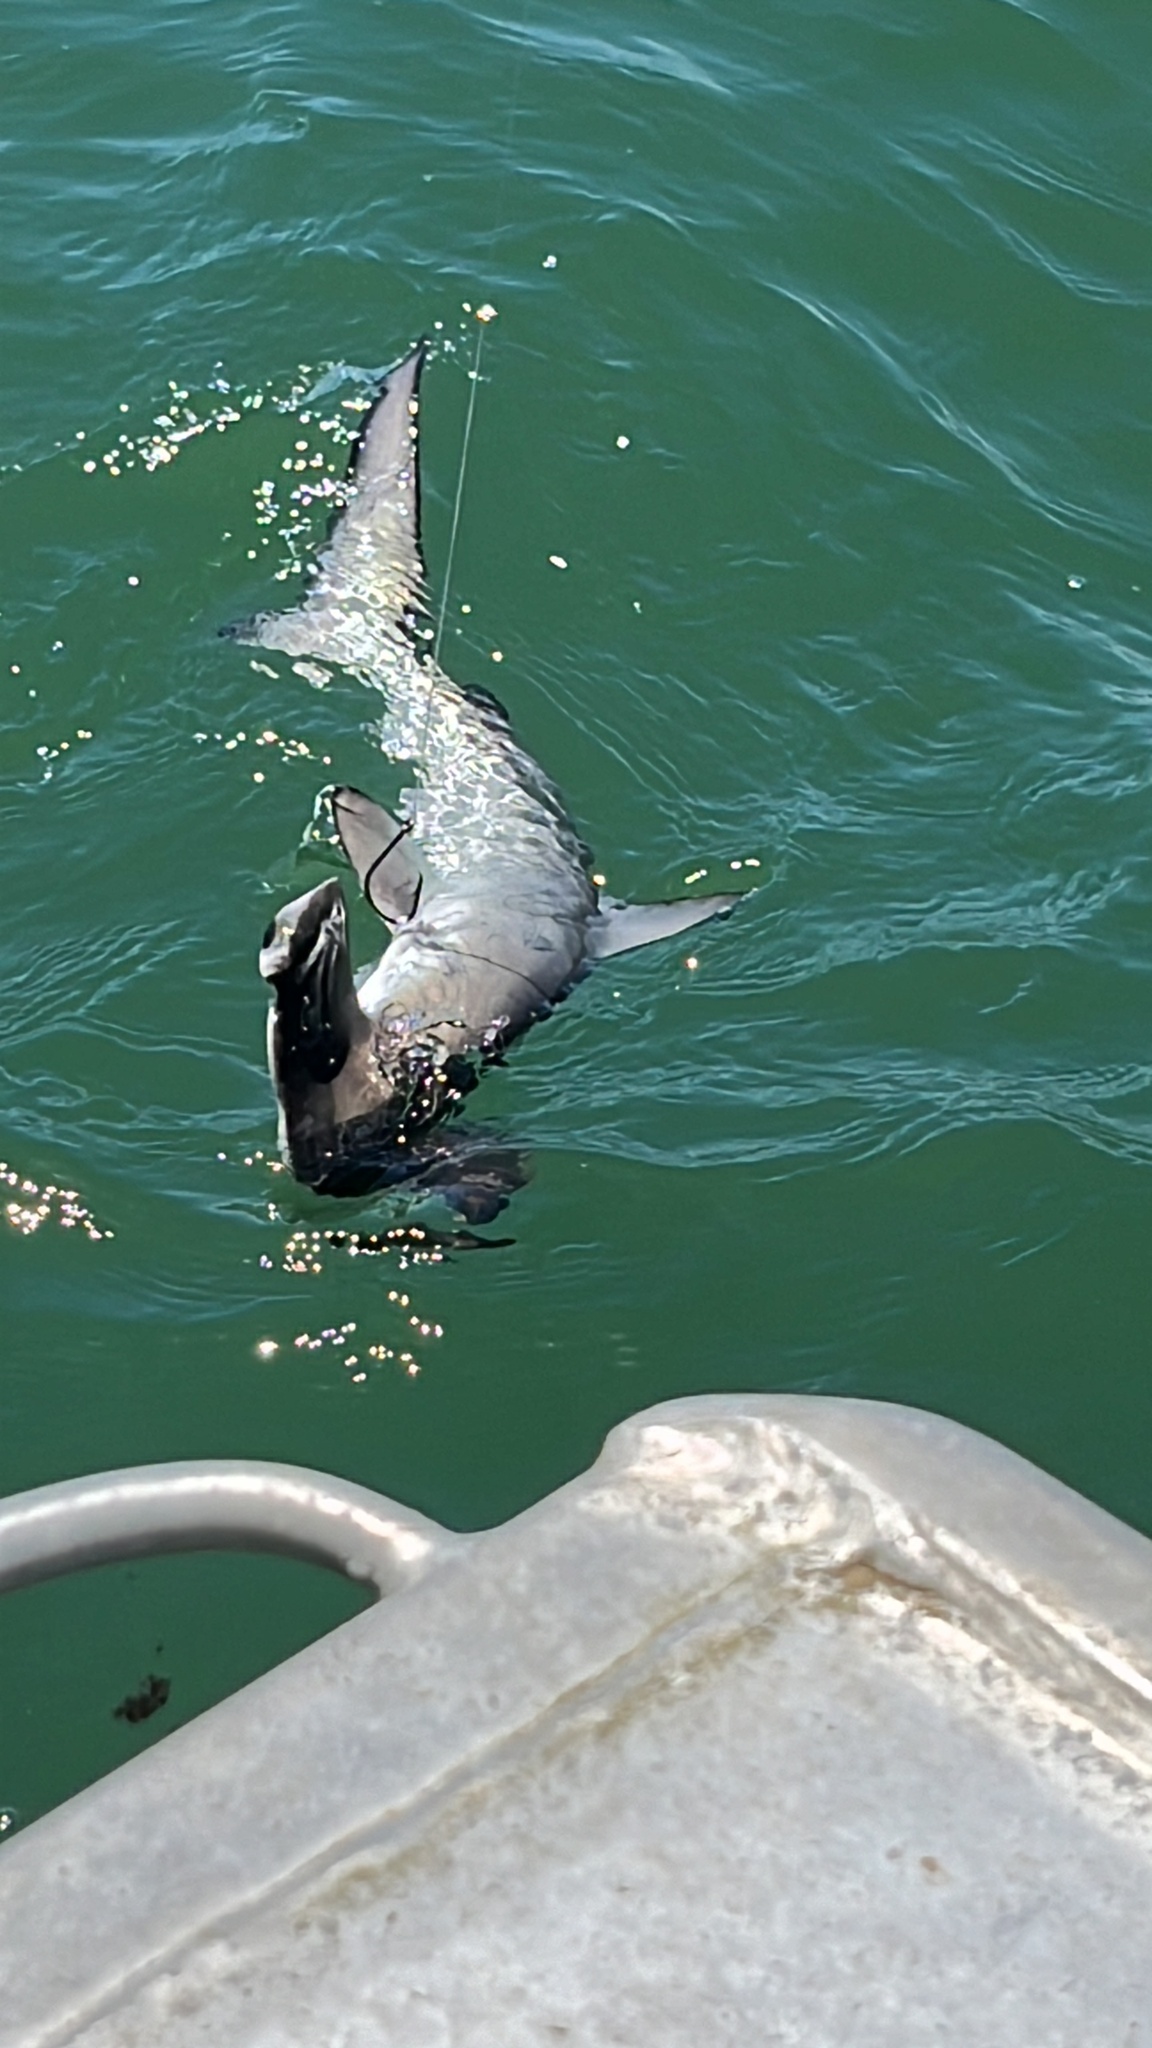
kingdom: Animalia
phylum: Chordata
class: Elasmobranchii
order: Carcharhiniformes
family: Sphyrnidae
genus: Sphyrna
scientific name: Sphyrna zygaena
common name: Smooth hammerhead
